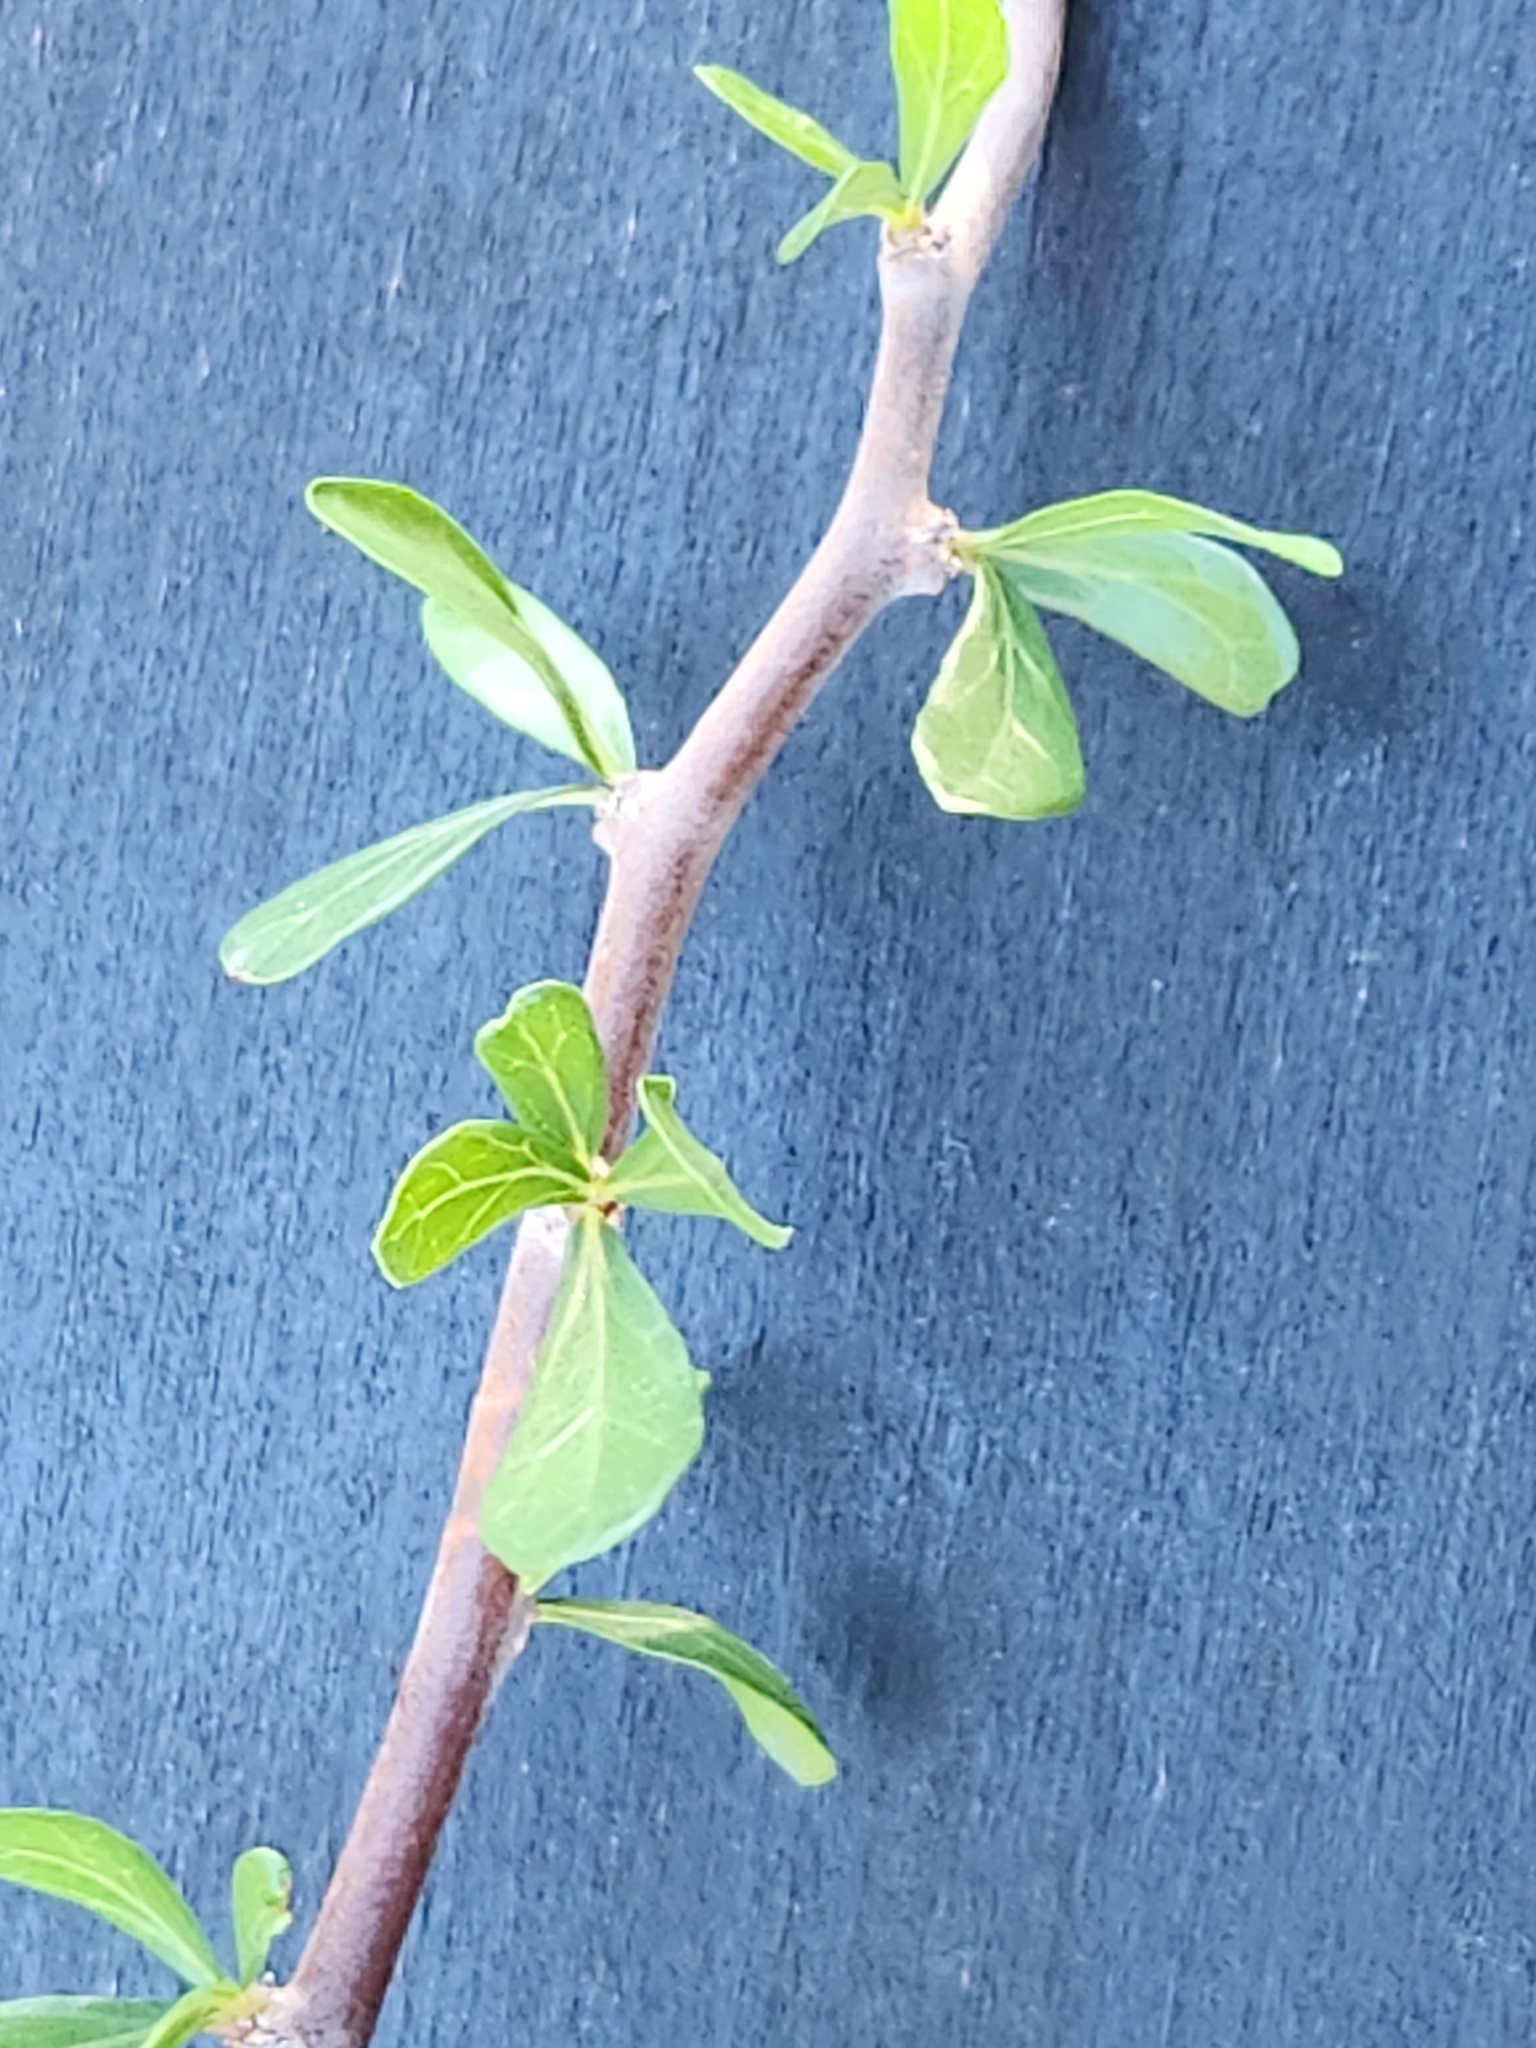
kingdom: Plantae
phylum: Tracheophyta
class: Magnoliopsida
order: Malpighiales
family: Euphorbiaceae
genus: Jatropha
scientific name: Jatropha dioica
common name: Leatherstem
